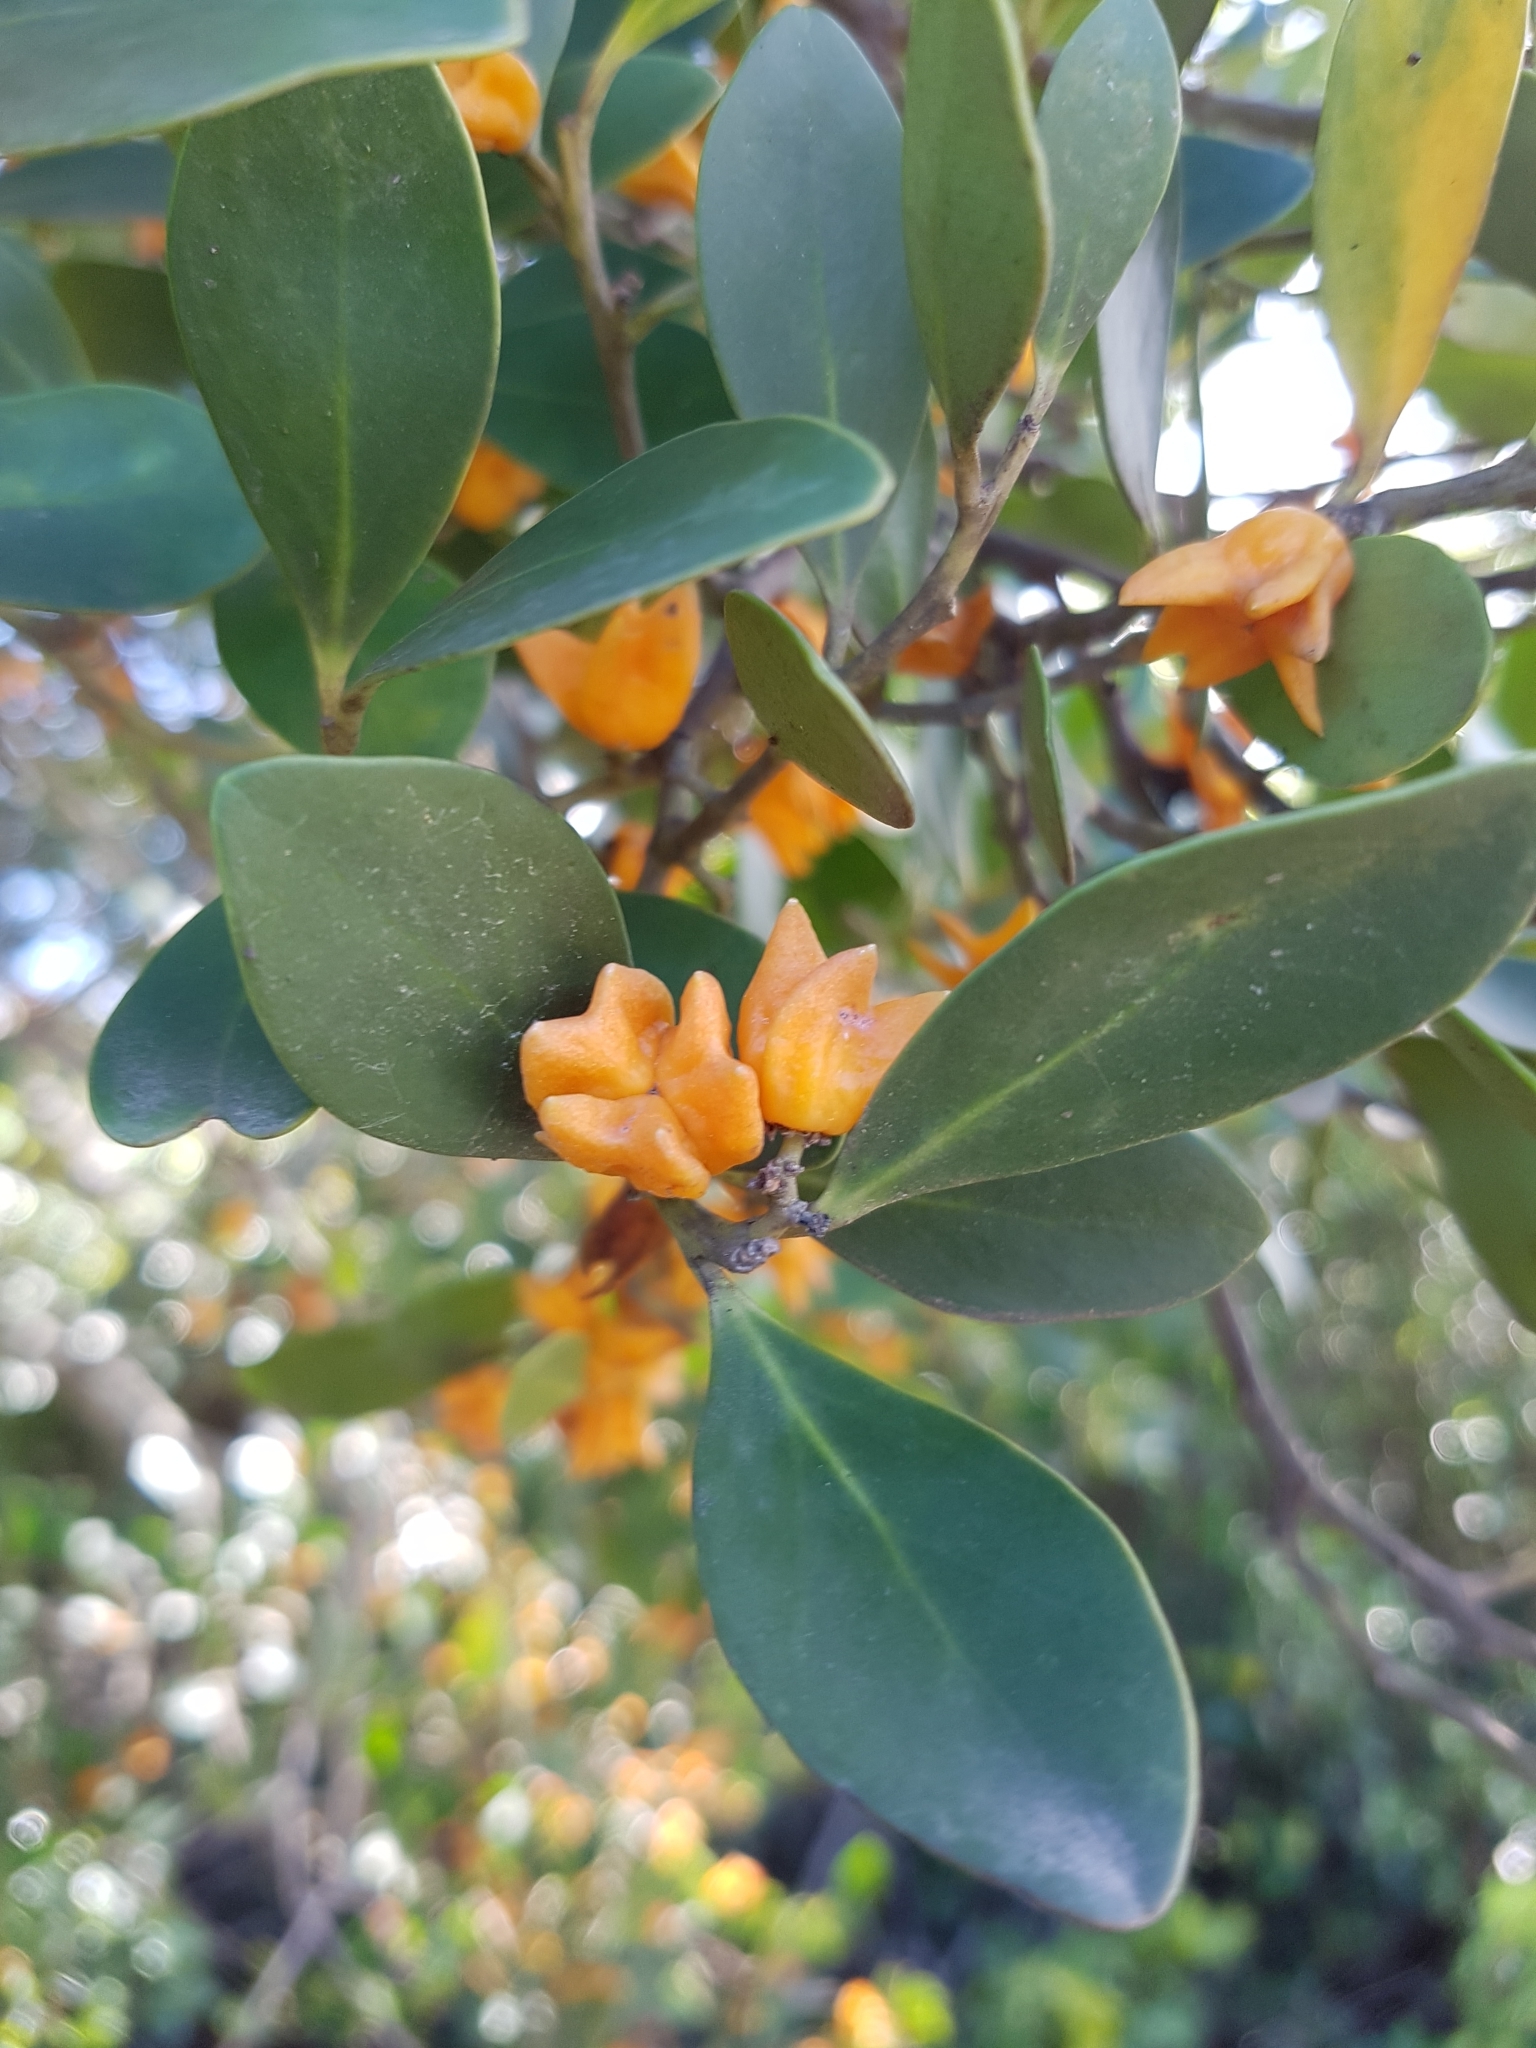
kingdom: Plantae
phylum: Tracheophyta
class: Magnoliopsida
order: Celastrales
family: Celastraceae
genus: Pterocelastrus
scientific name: Pterocelastrus tricuspidatus
